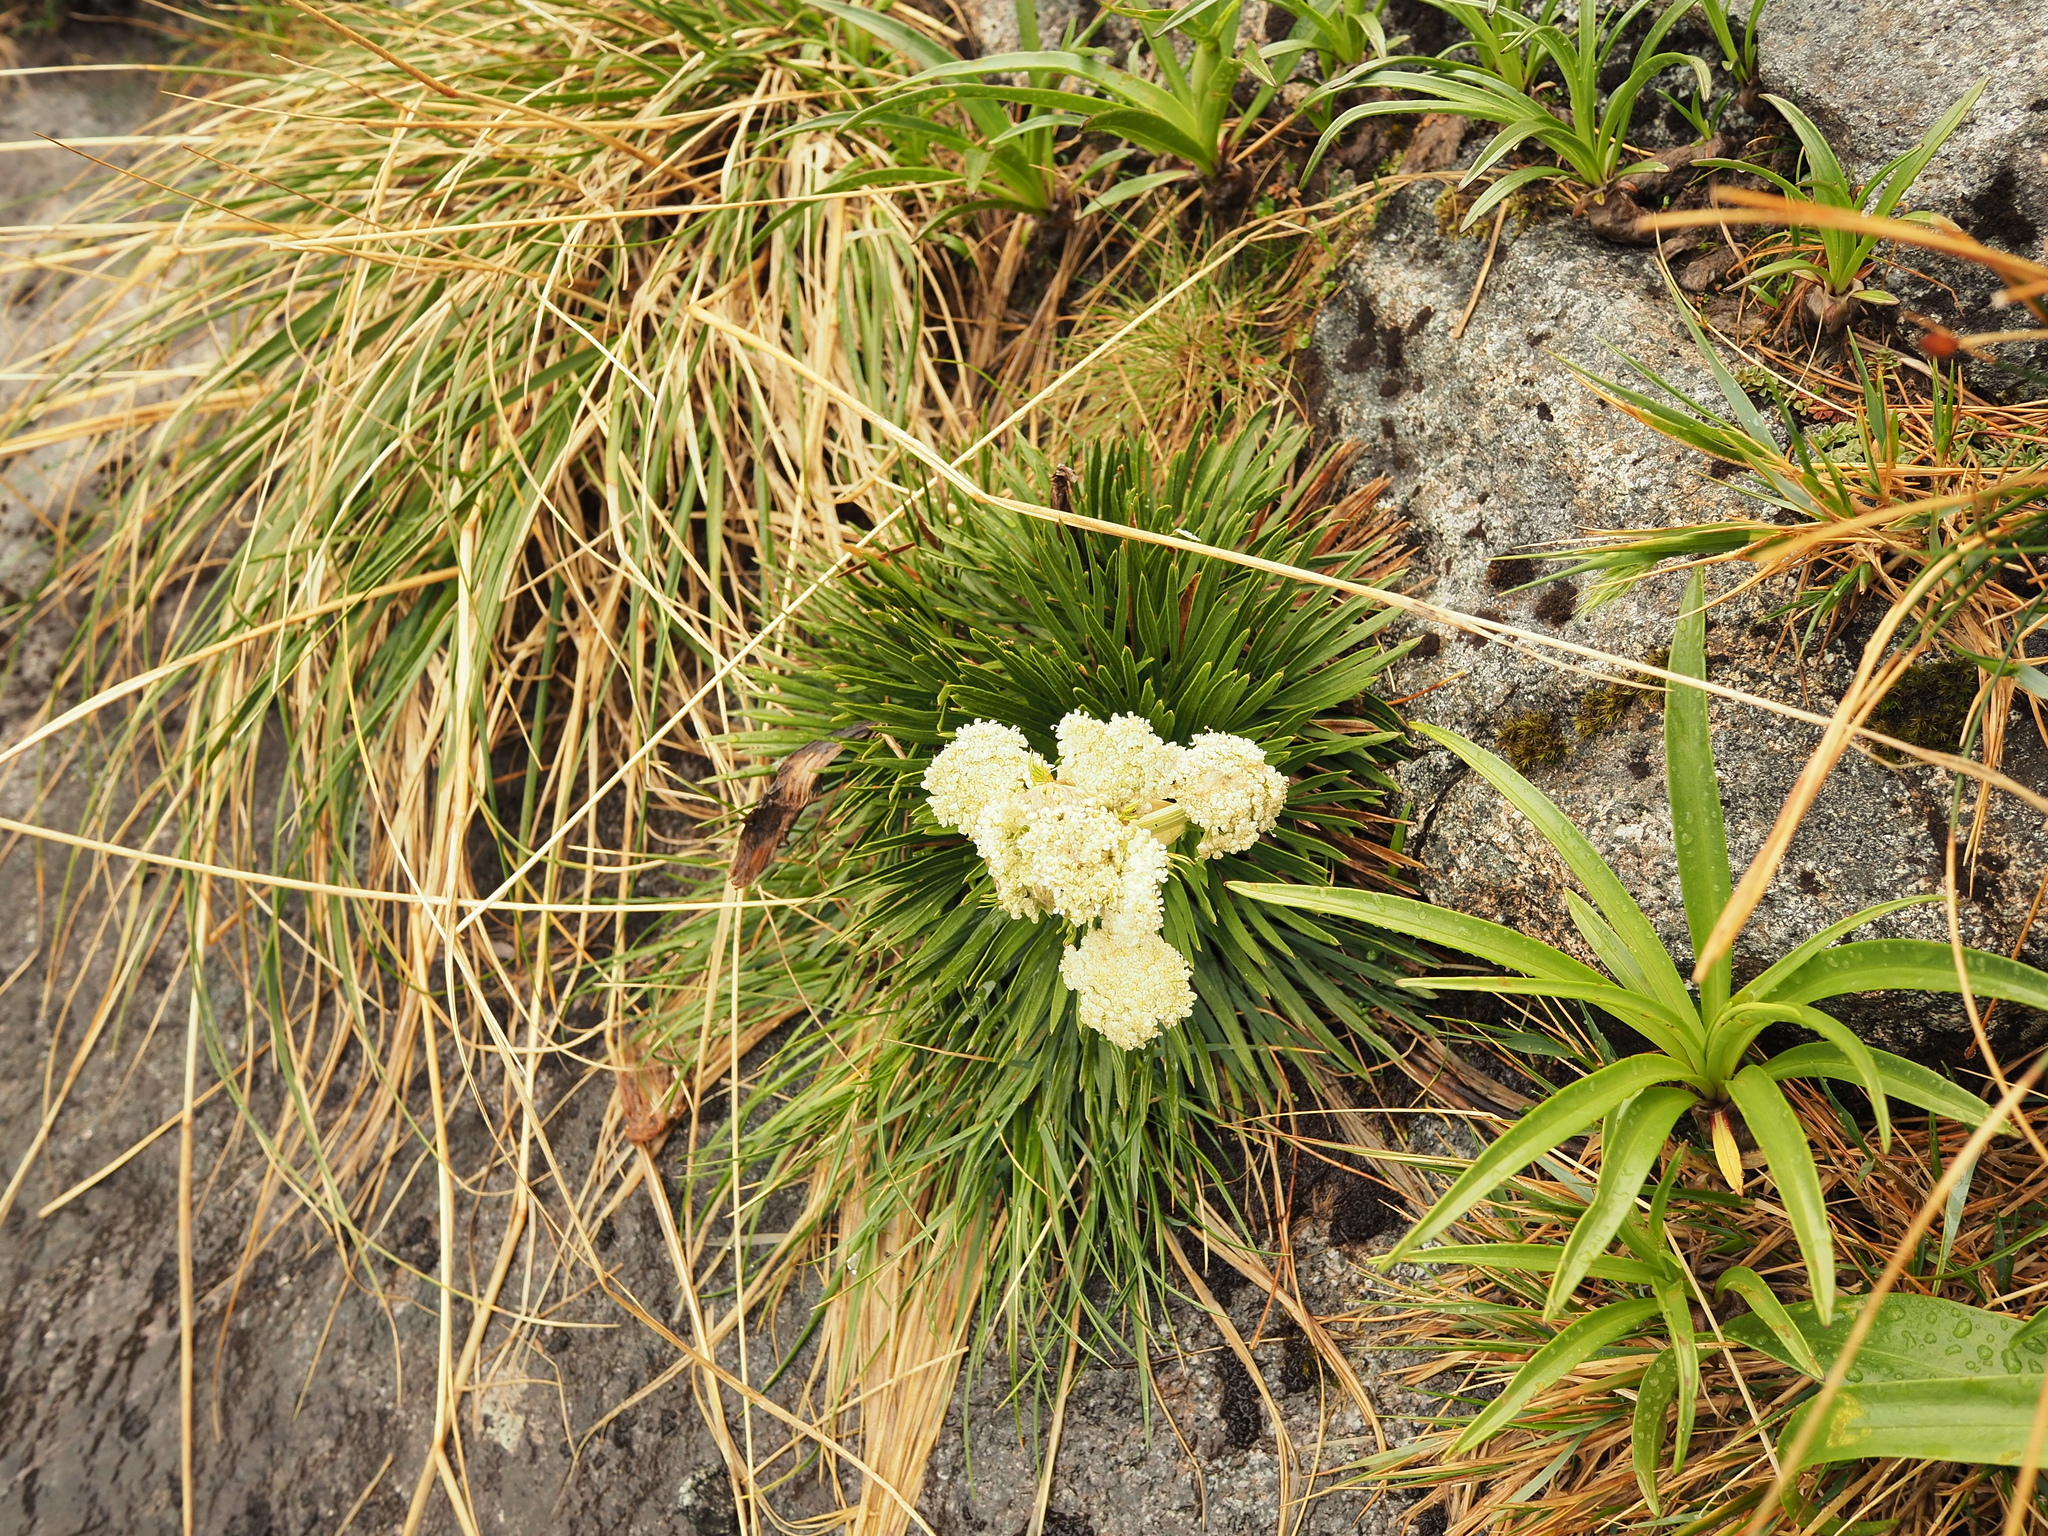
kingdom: Plantae
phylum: Tracheophyta
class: Magnoliopsida
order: Apiales
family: Apiaceae
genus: Aciphylla
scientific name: Aciphylla congesta
